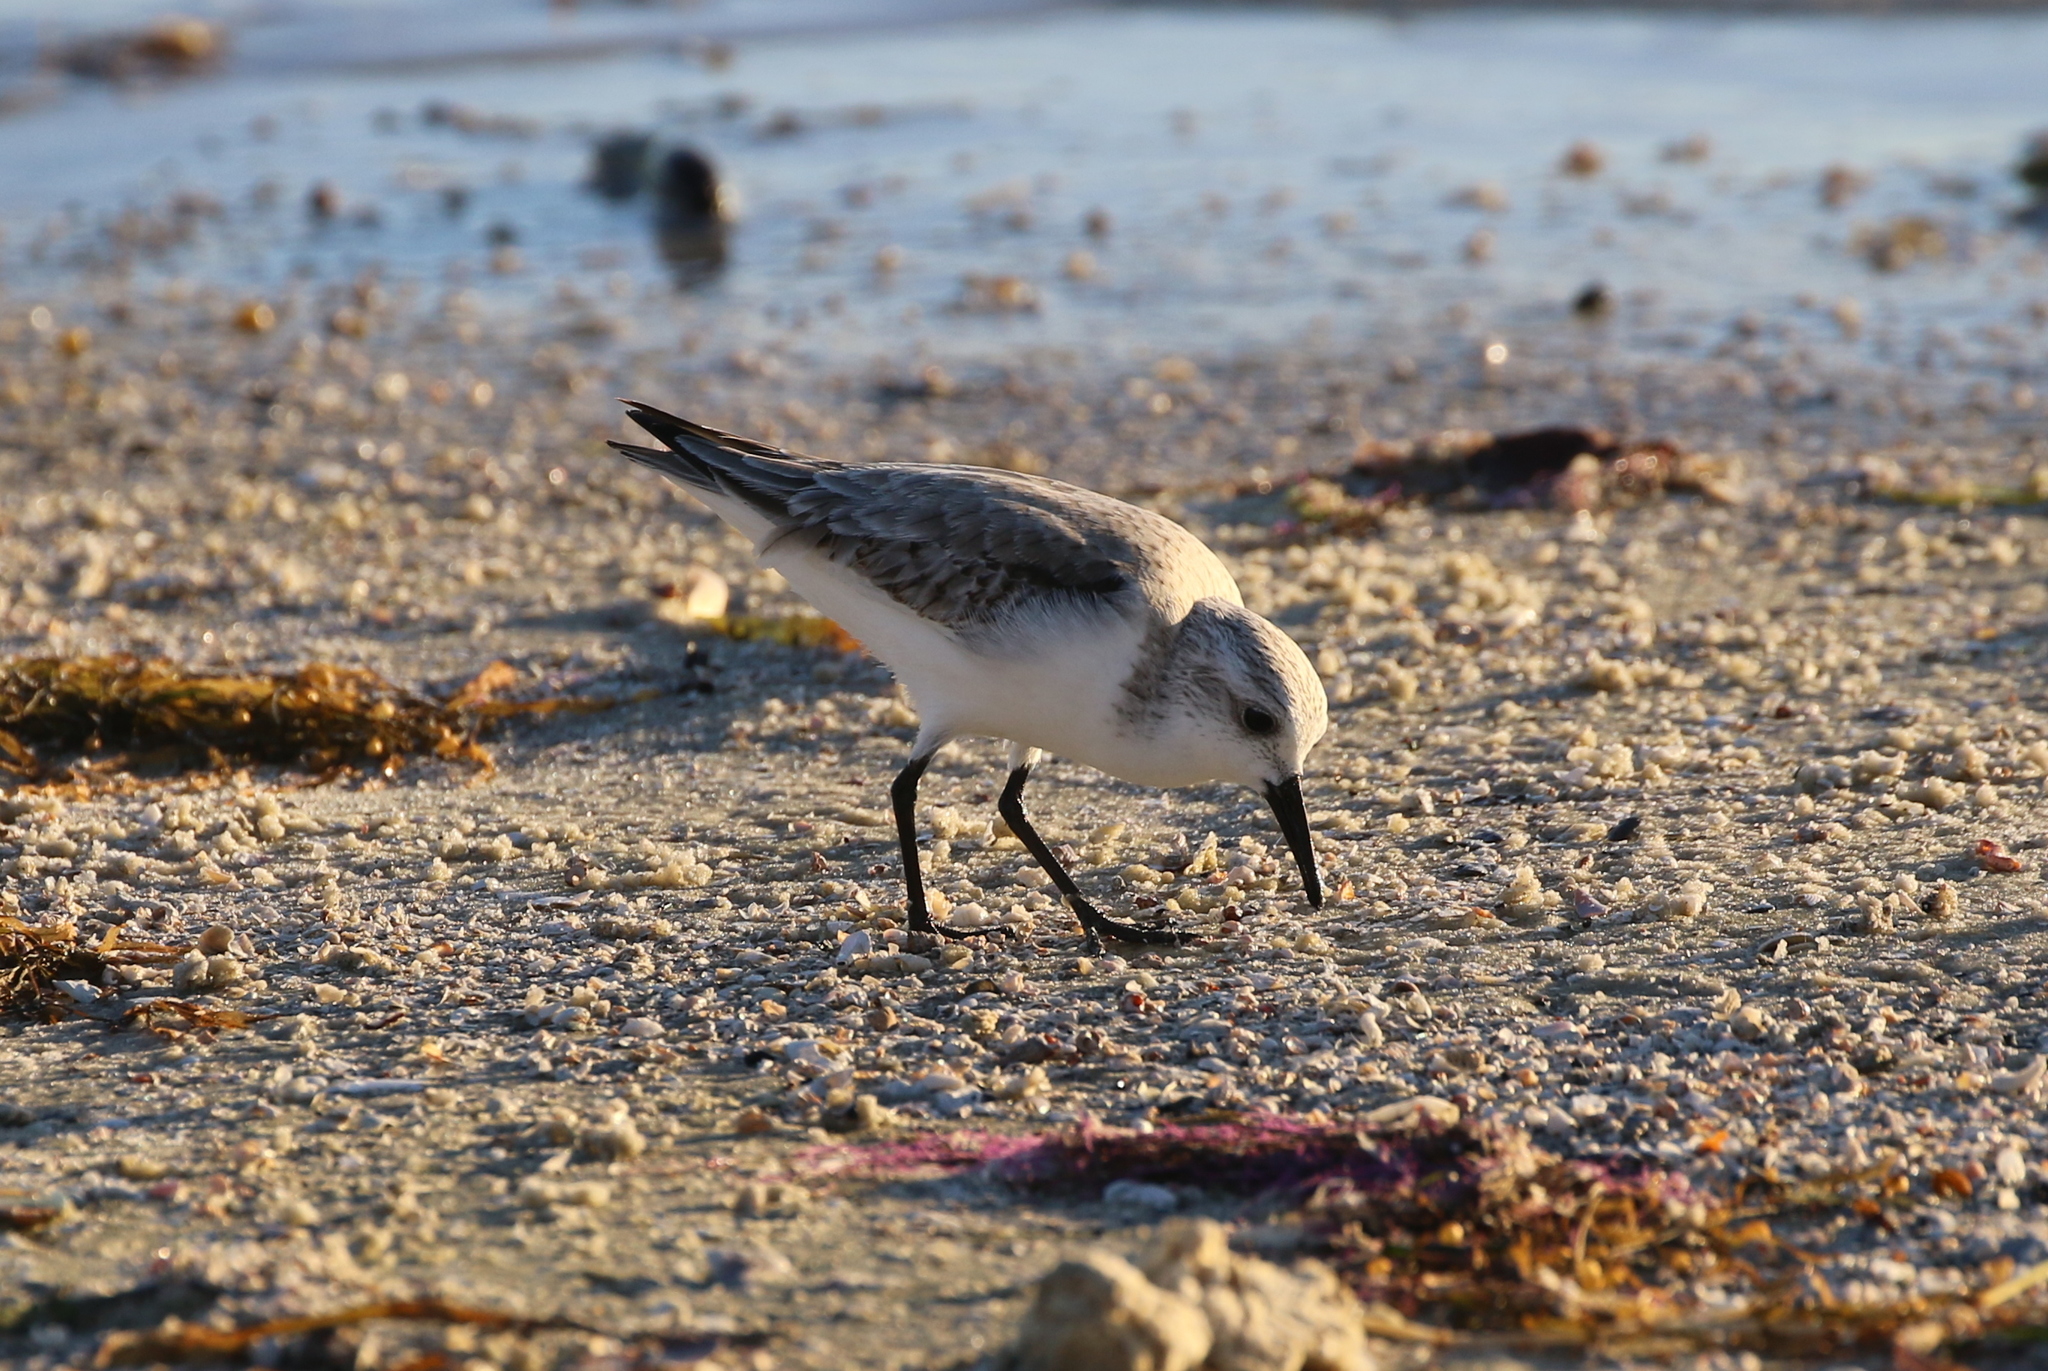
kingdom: Animalia
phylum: Chordata
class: Aves
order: Charadriiformes
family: Scolopacidae
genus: Calidris
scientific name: Calidris alba
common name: Sanderling
